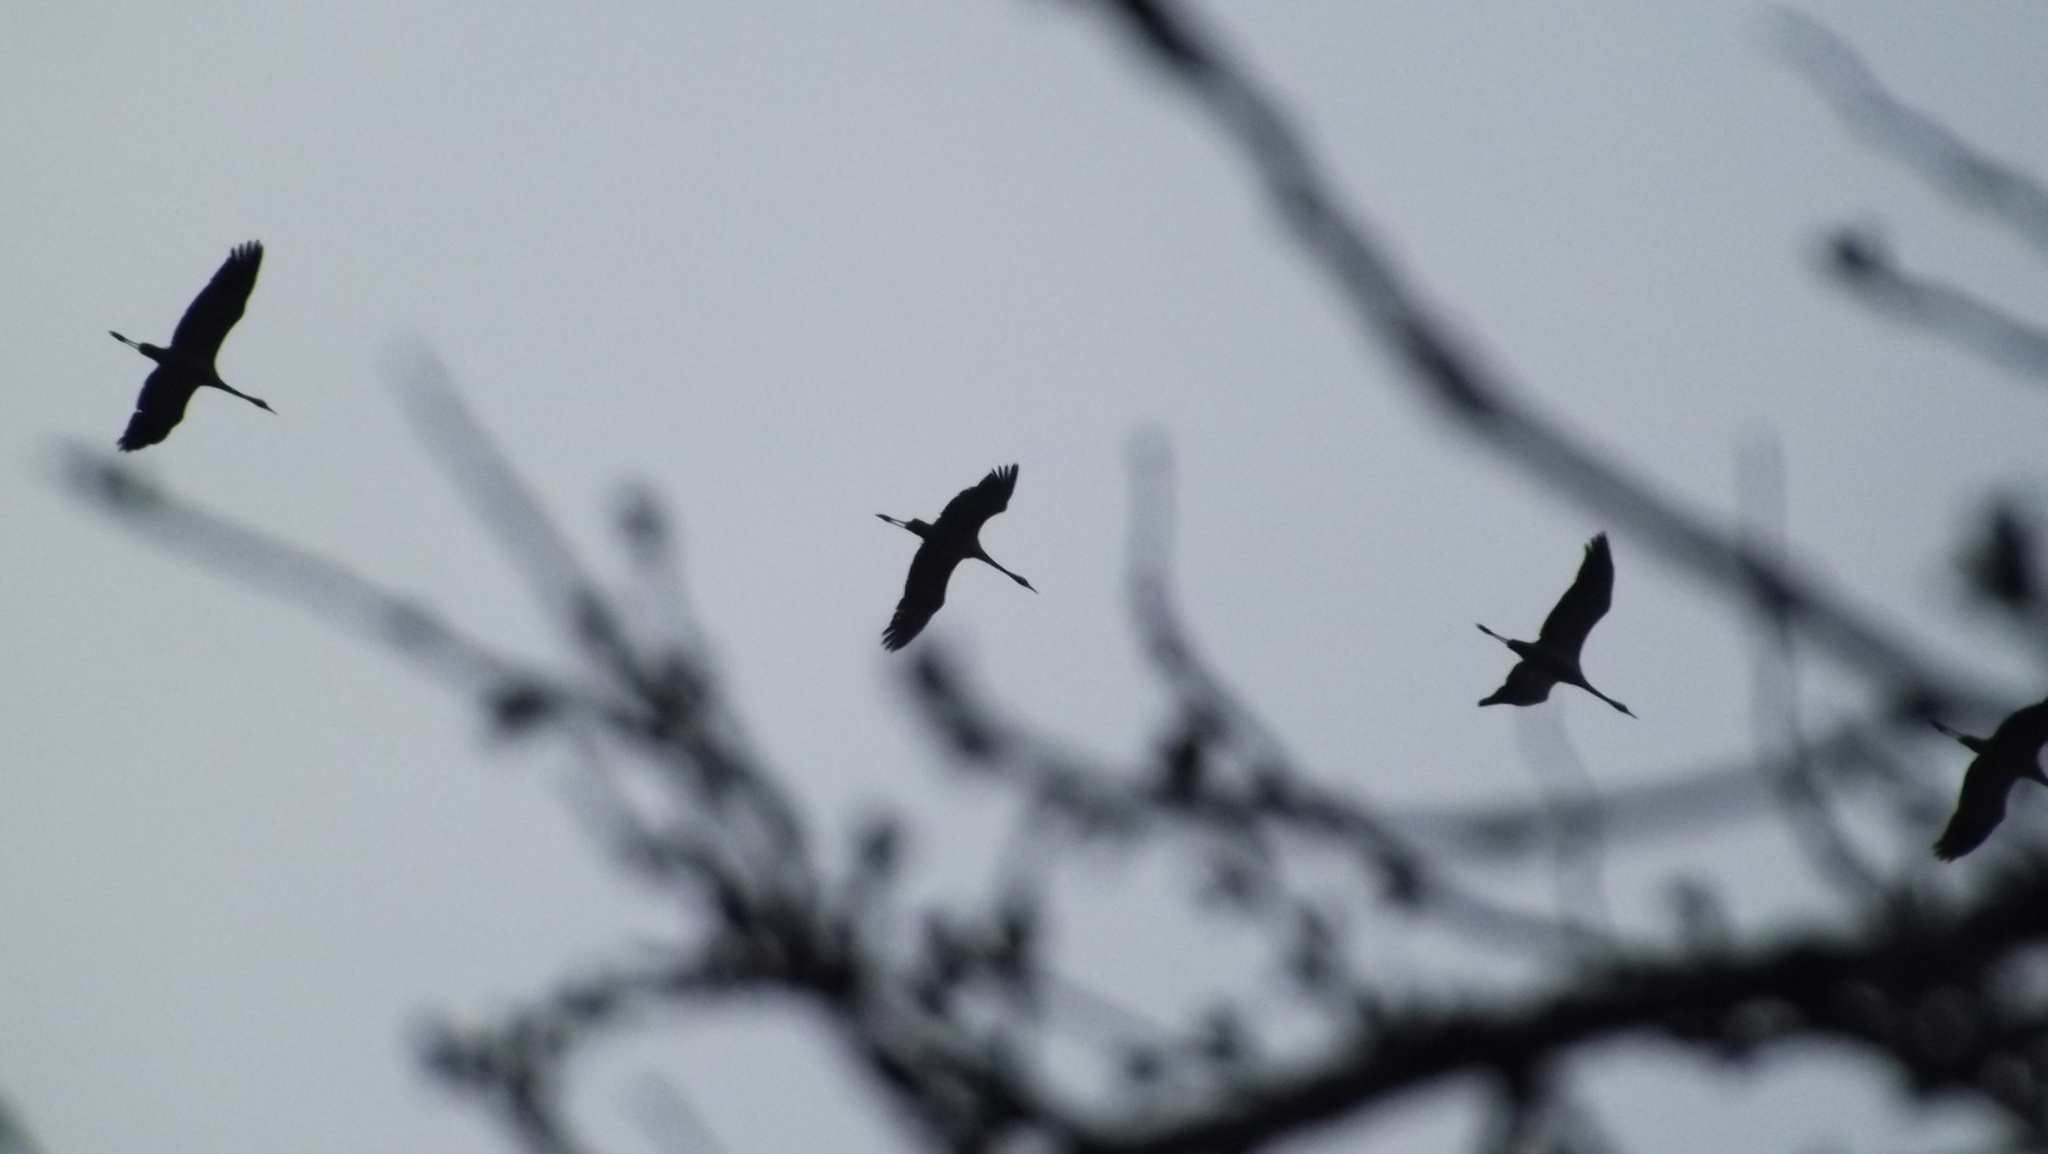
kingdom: Animalia
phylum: Chordata
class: Aves
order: Gruiformes
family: Gruidae
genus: Grus
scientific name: Grus grus
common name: Common crane
